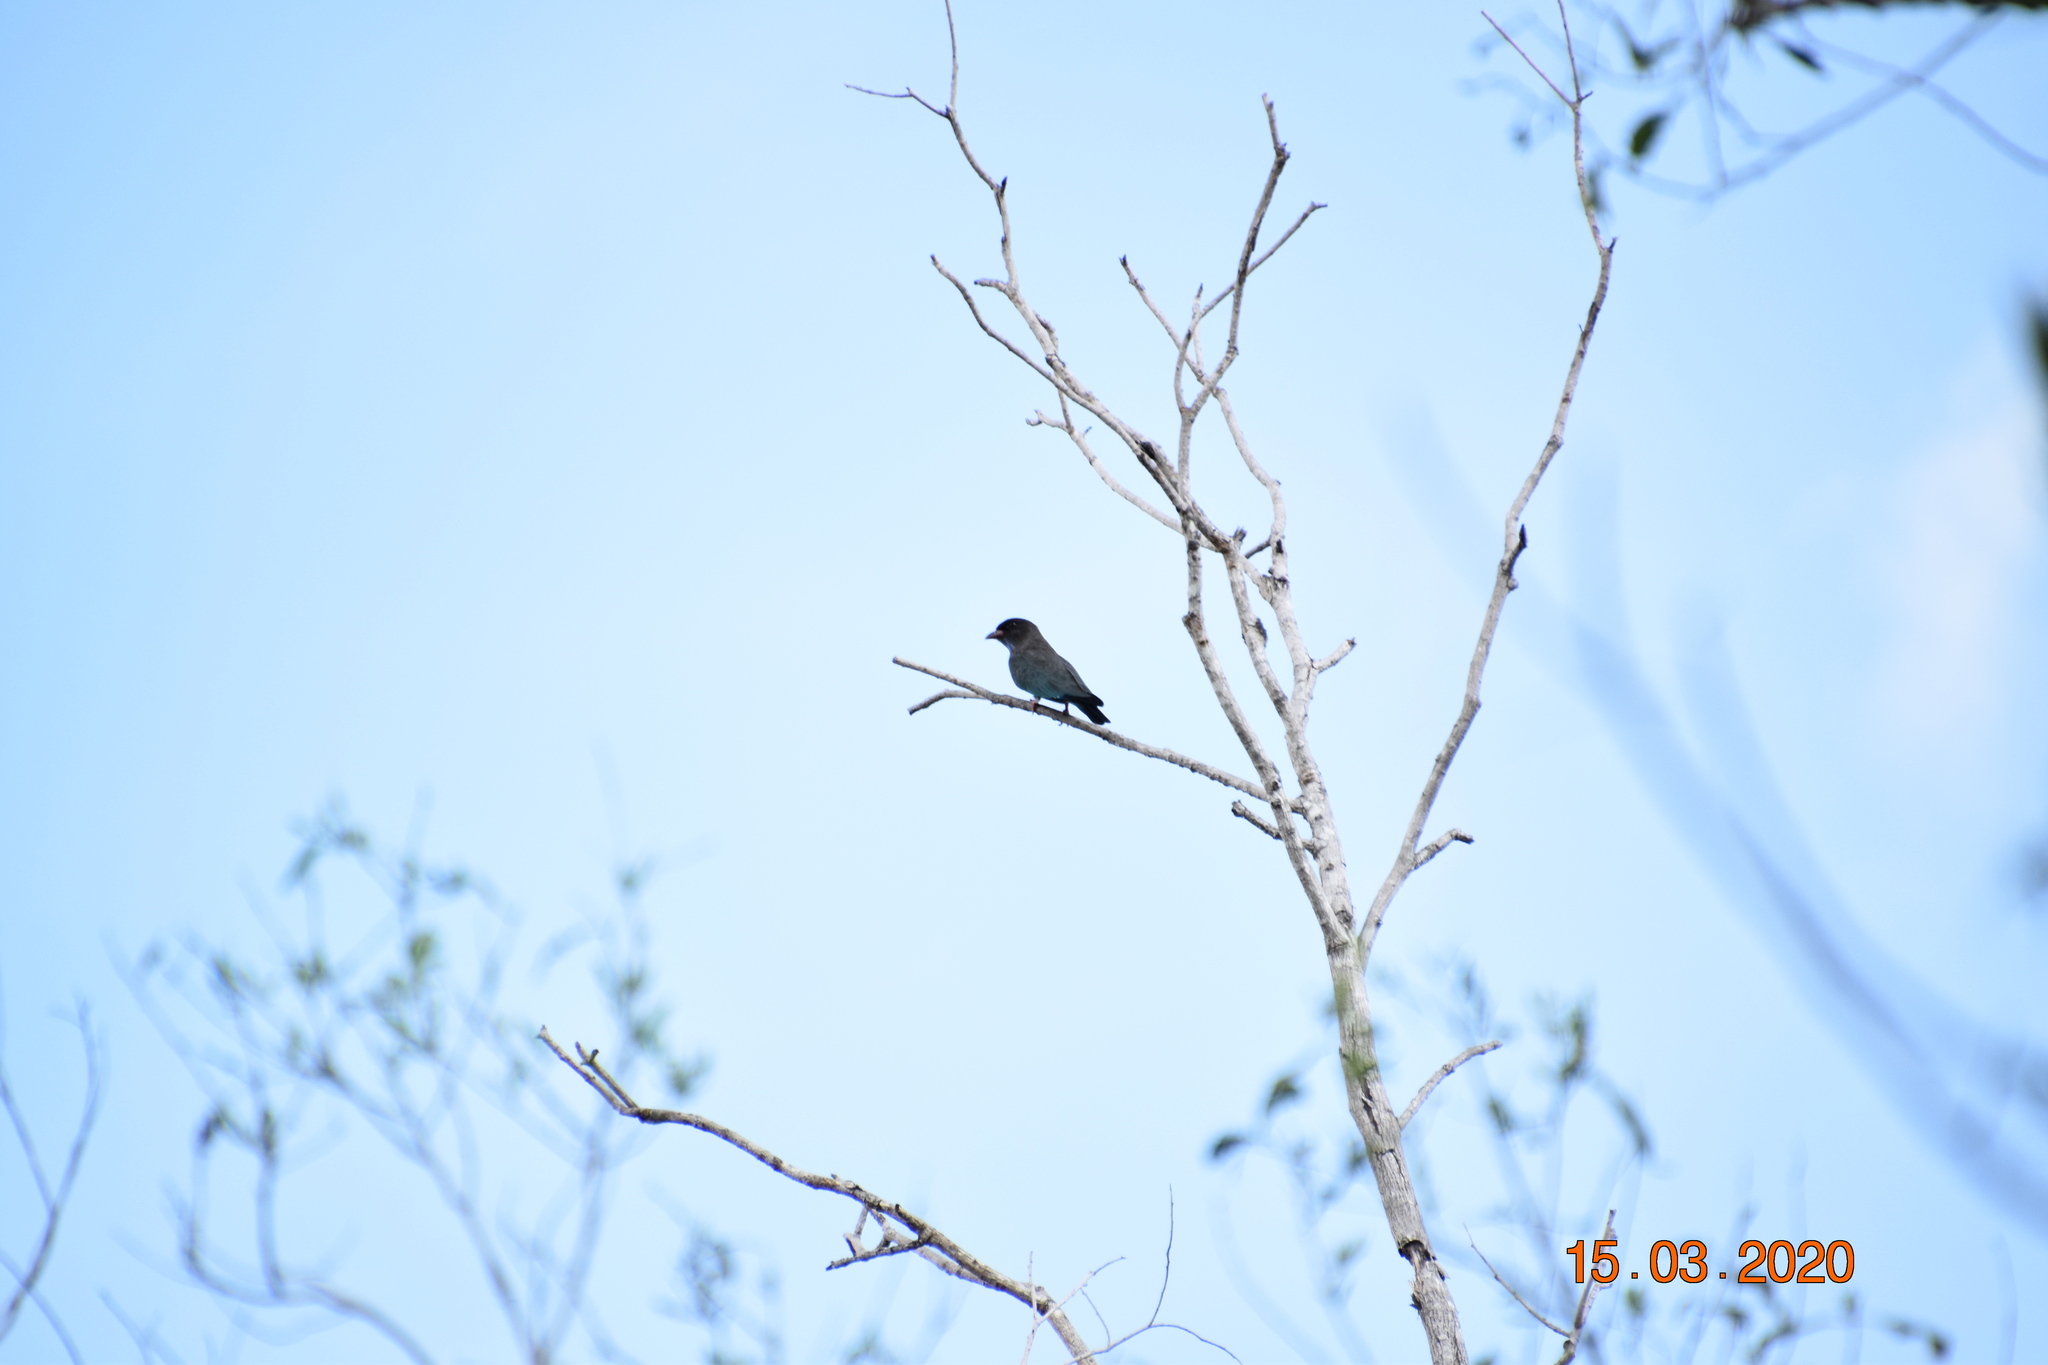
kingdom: Animalia
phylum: Chordata
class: Aves
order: Coraciiformes
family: Coraciidae
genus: Eurystomus
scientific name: Eurystomus orientalis
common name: Oriental dollarbird
